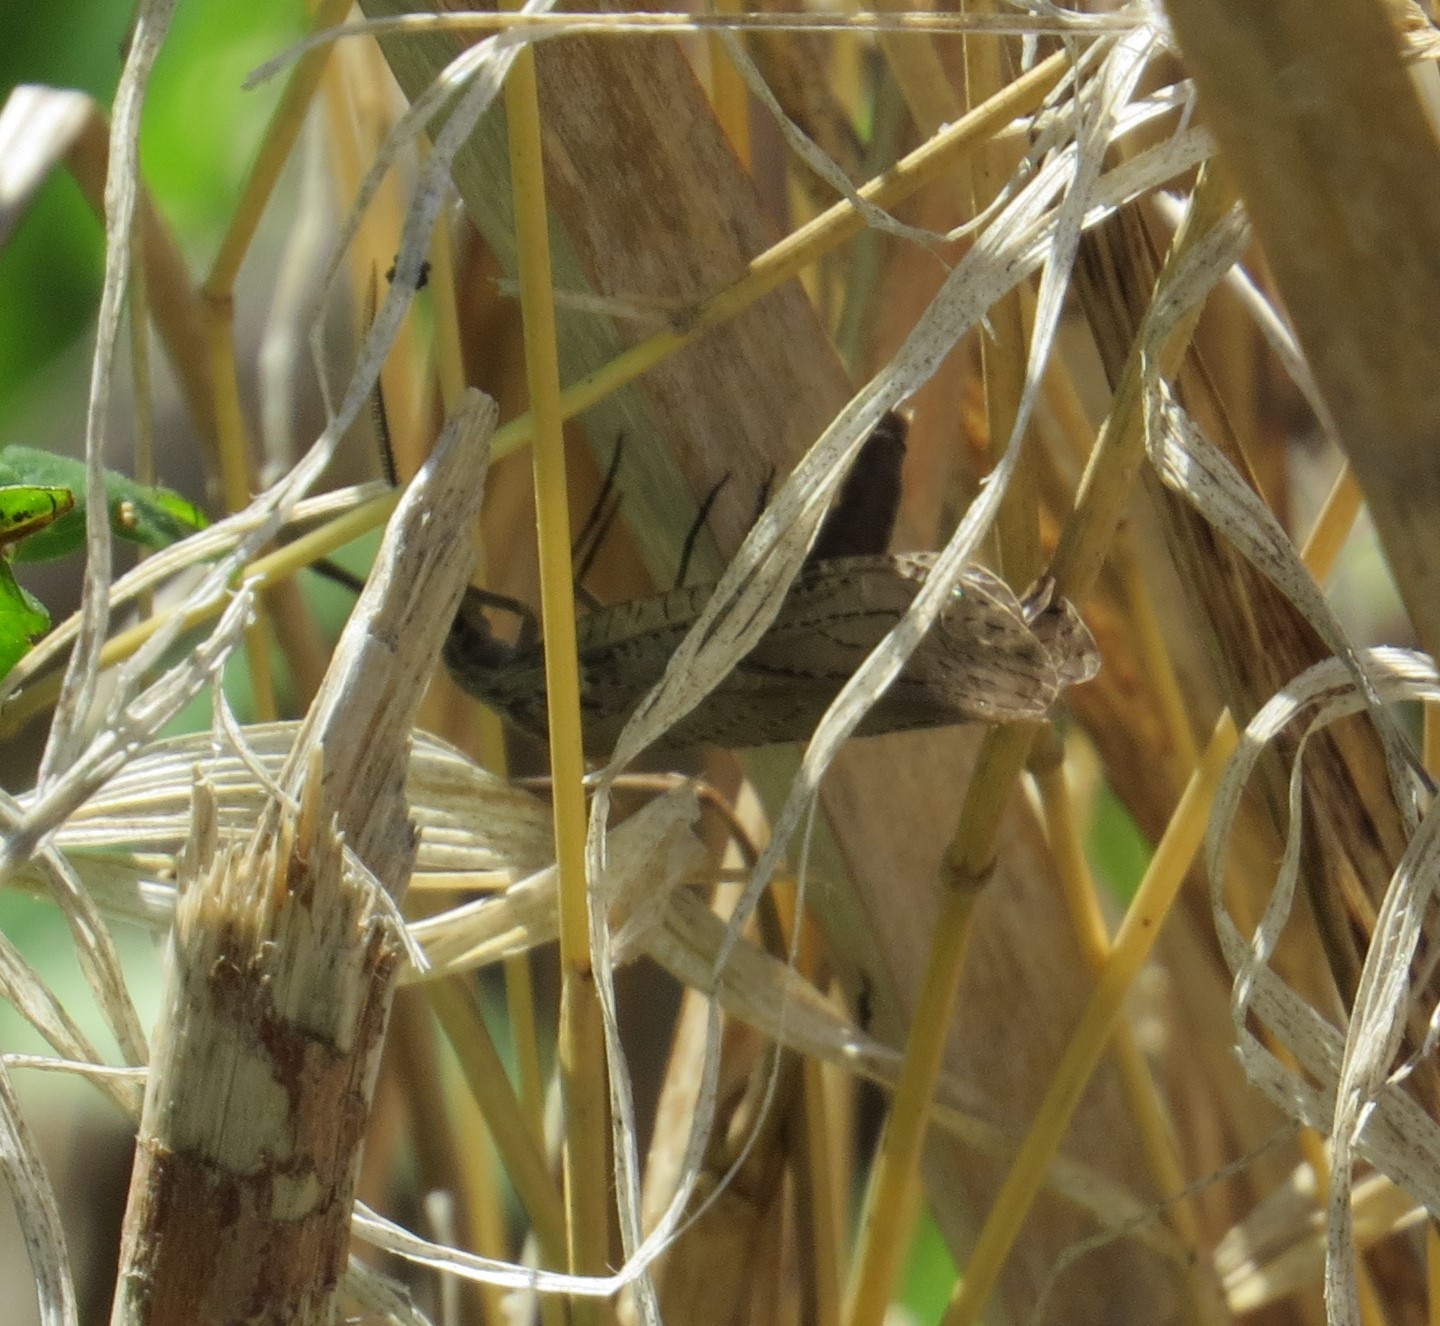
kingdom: Animalia
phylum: Arthropoda
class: Insecta
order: Megaloptera
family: Corydalidae
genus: Chauliodes
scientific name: Chauliodes rastricornis
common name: Spring fishfly
